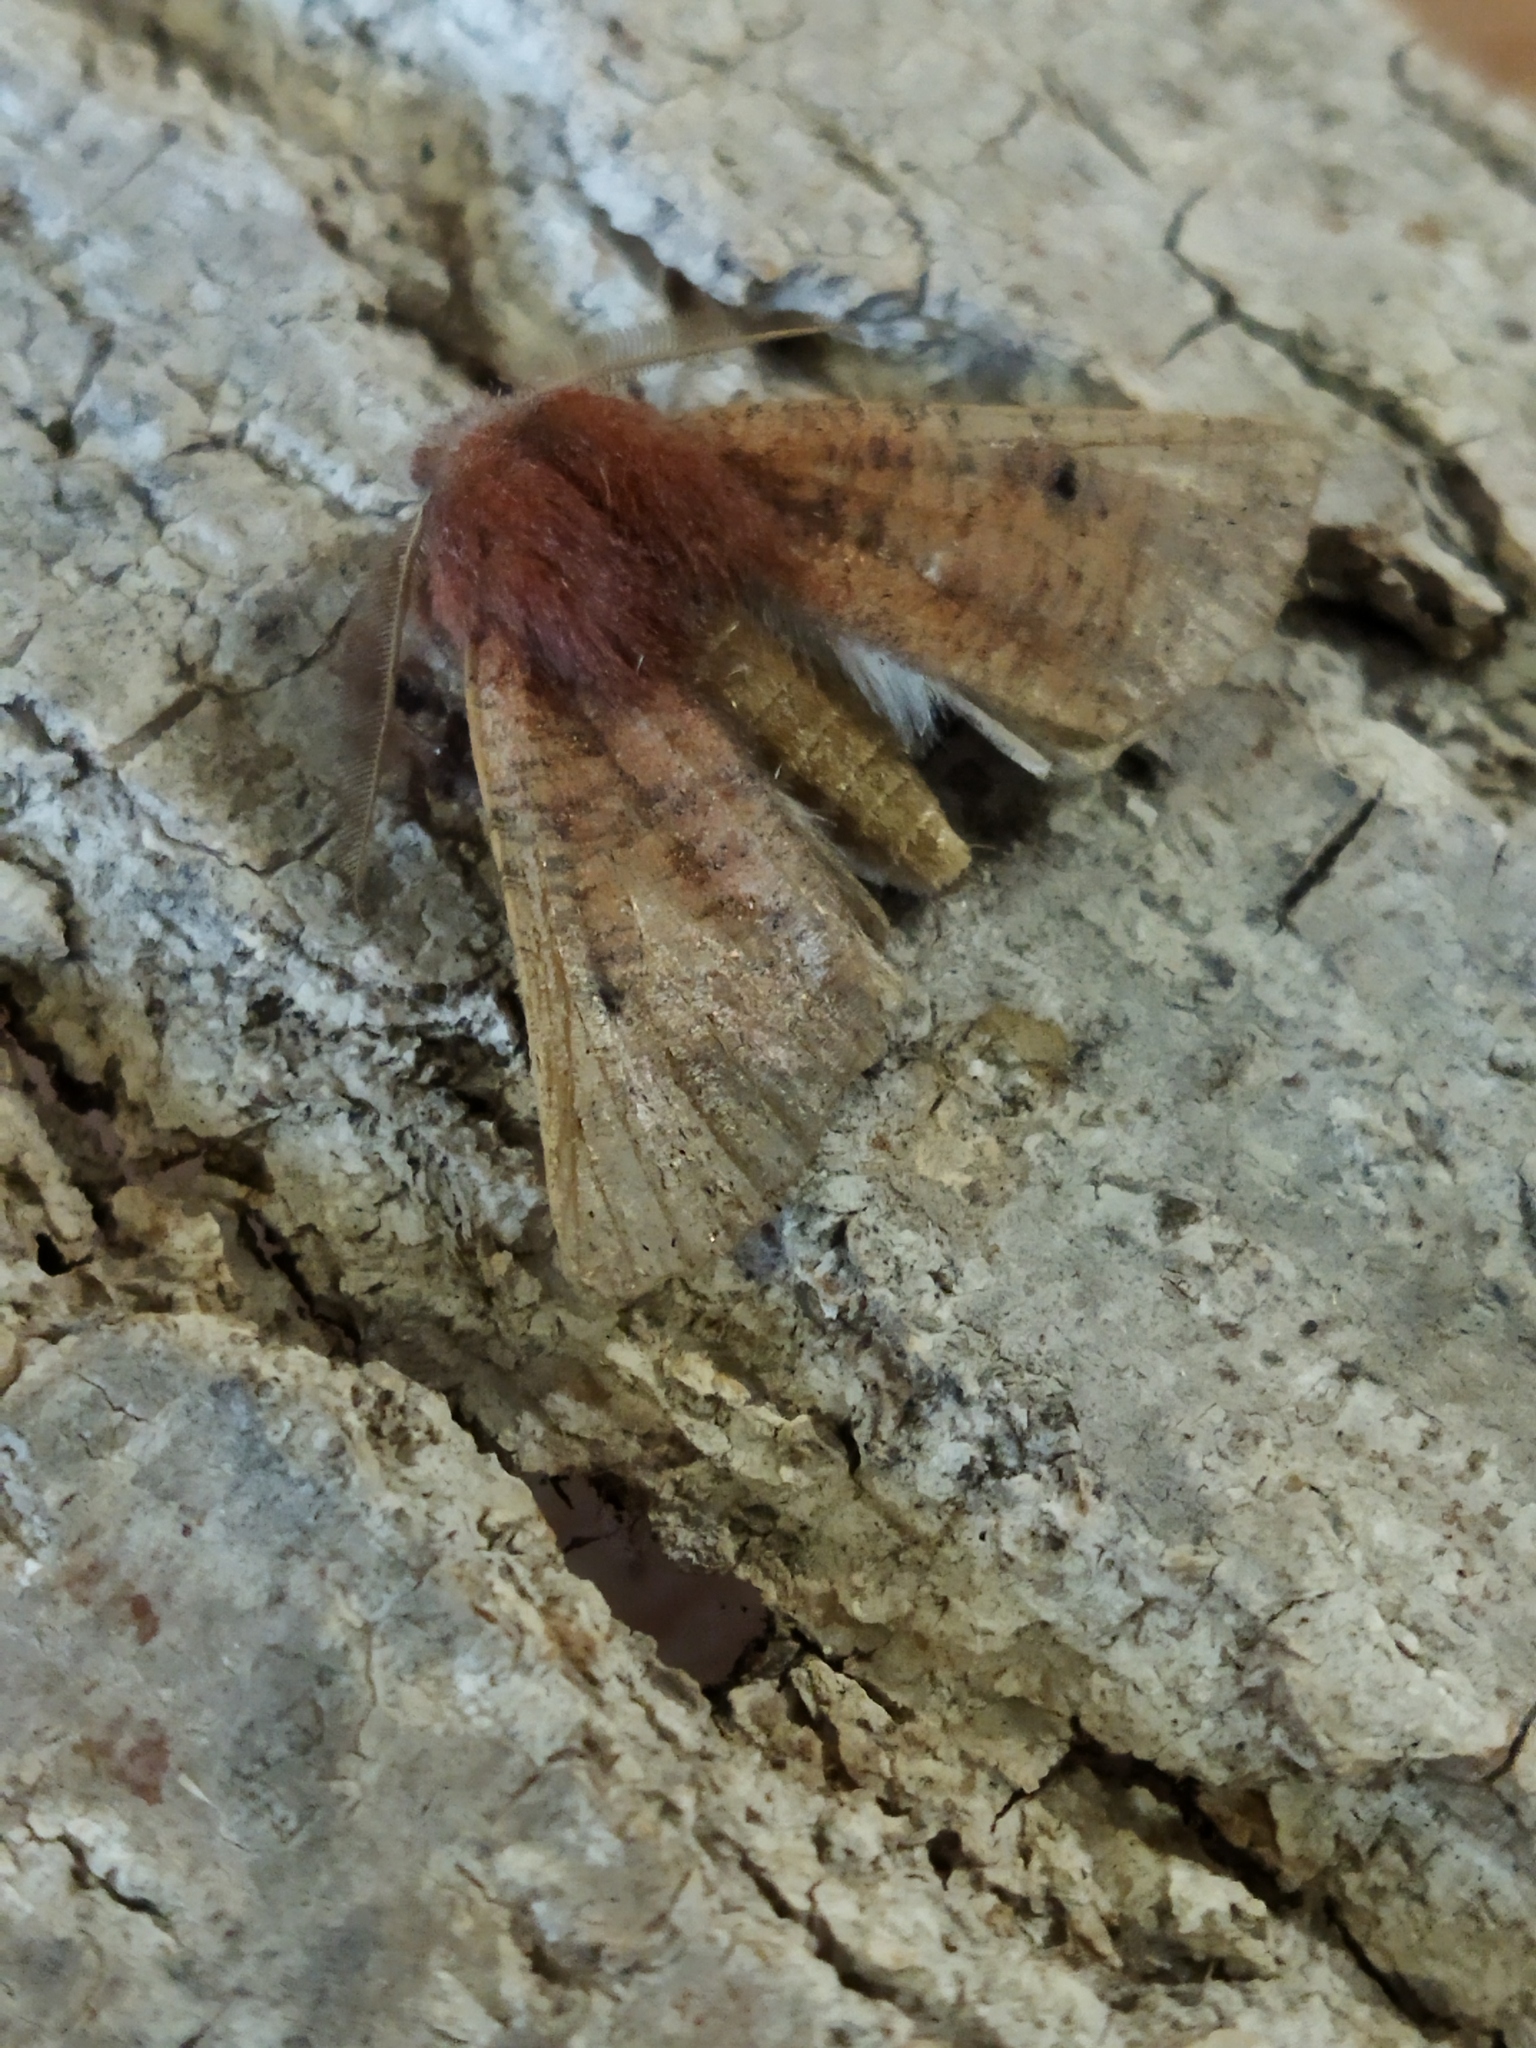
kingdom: Animalia
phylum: Arthropoda
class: Insecta
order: Lepidoptera
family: Geometridae
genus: Dasycorsa
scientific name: Dasycorsa modesta
